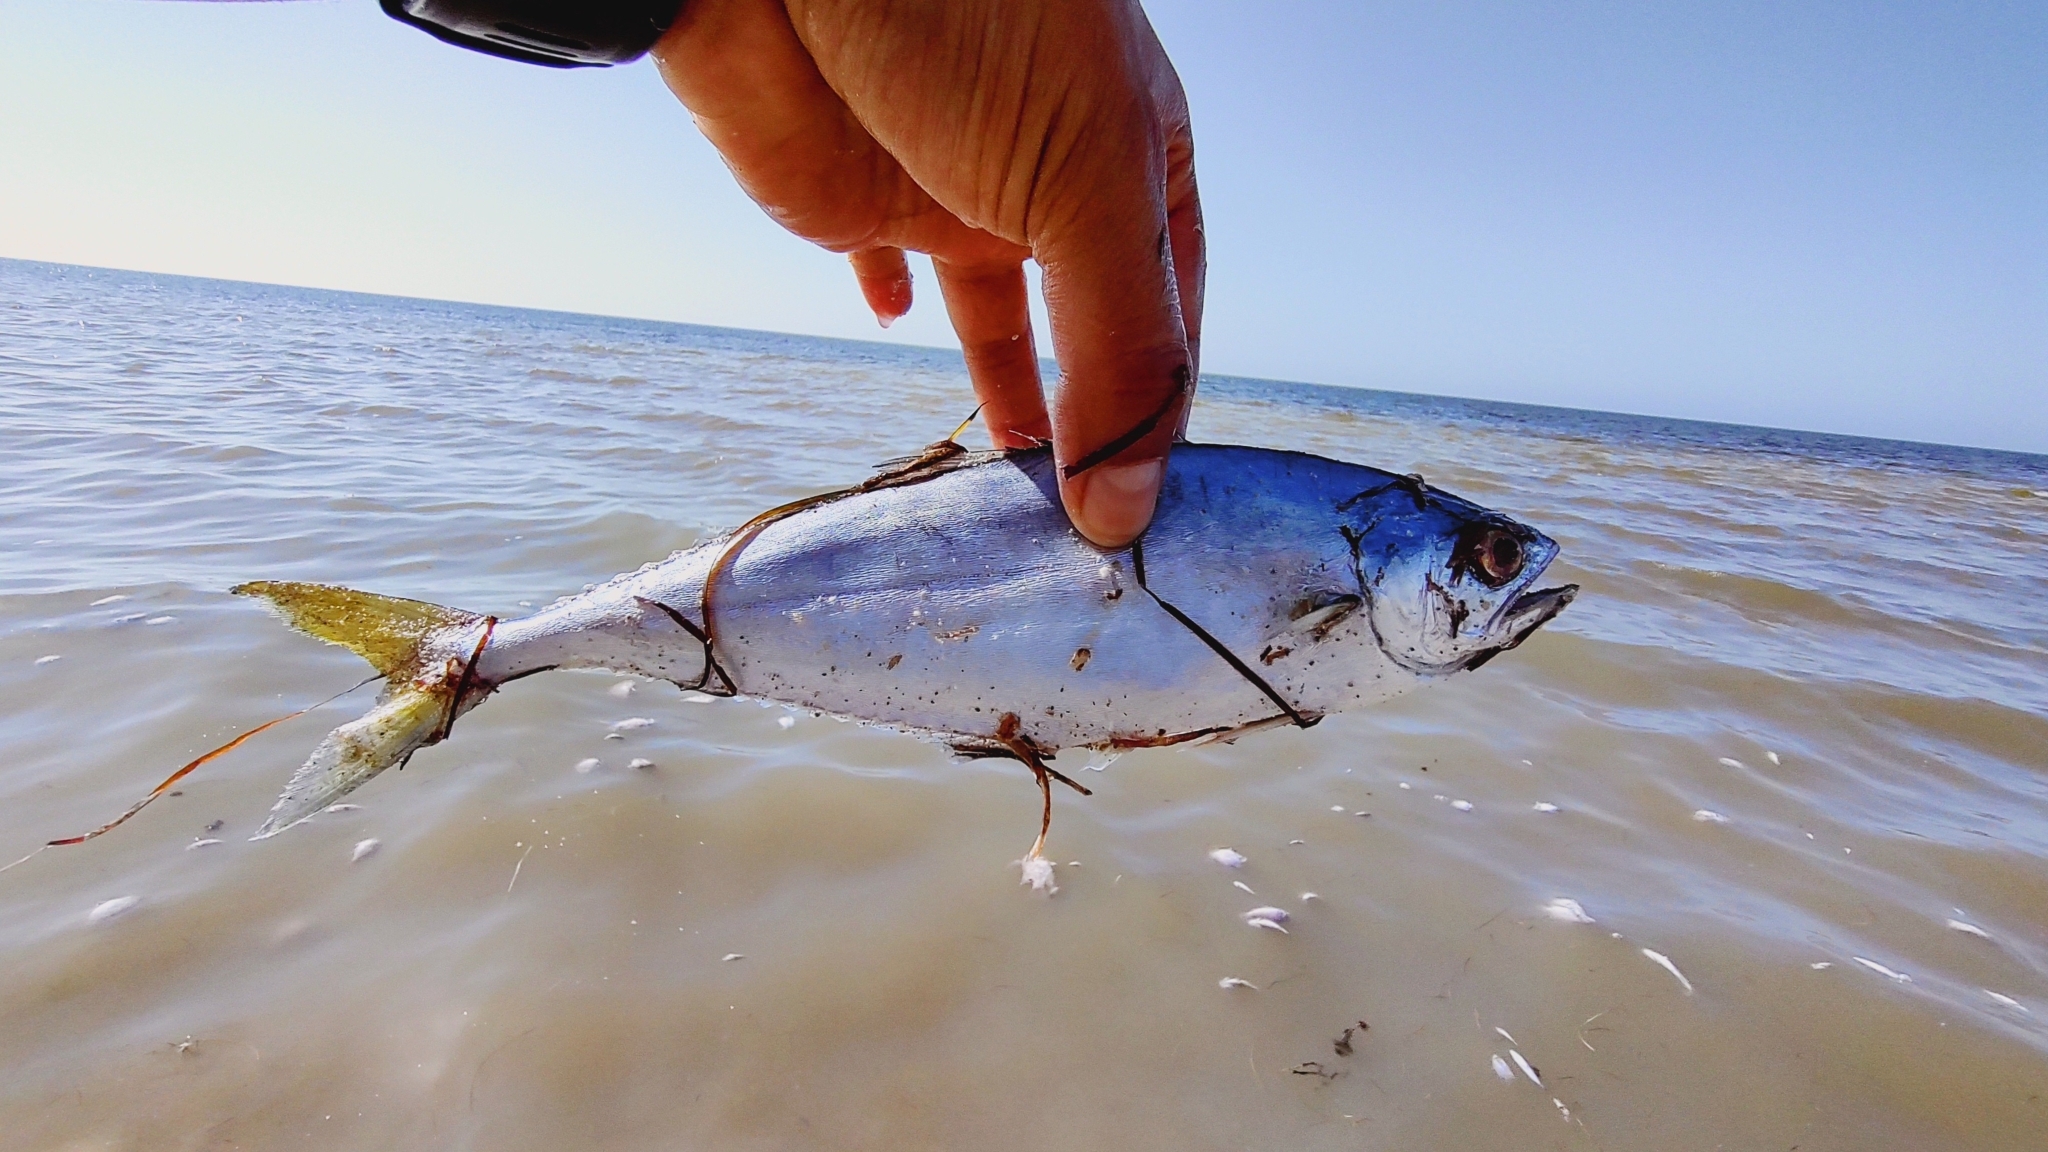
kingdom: Animalia
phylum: Chordata
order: Perciformes
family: Carangidae
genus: Oligoplites
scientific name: Oligoplites saurus
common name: Leatherjacket
